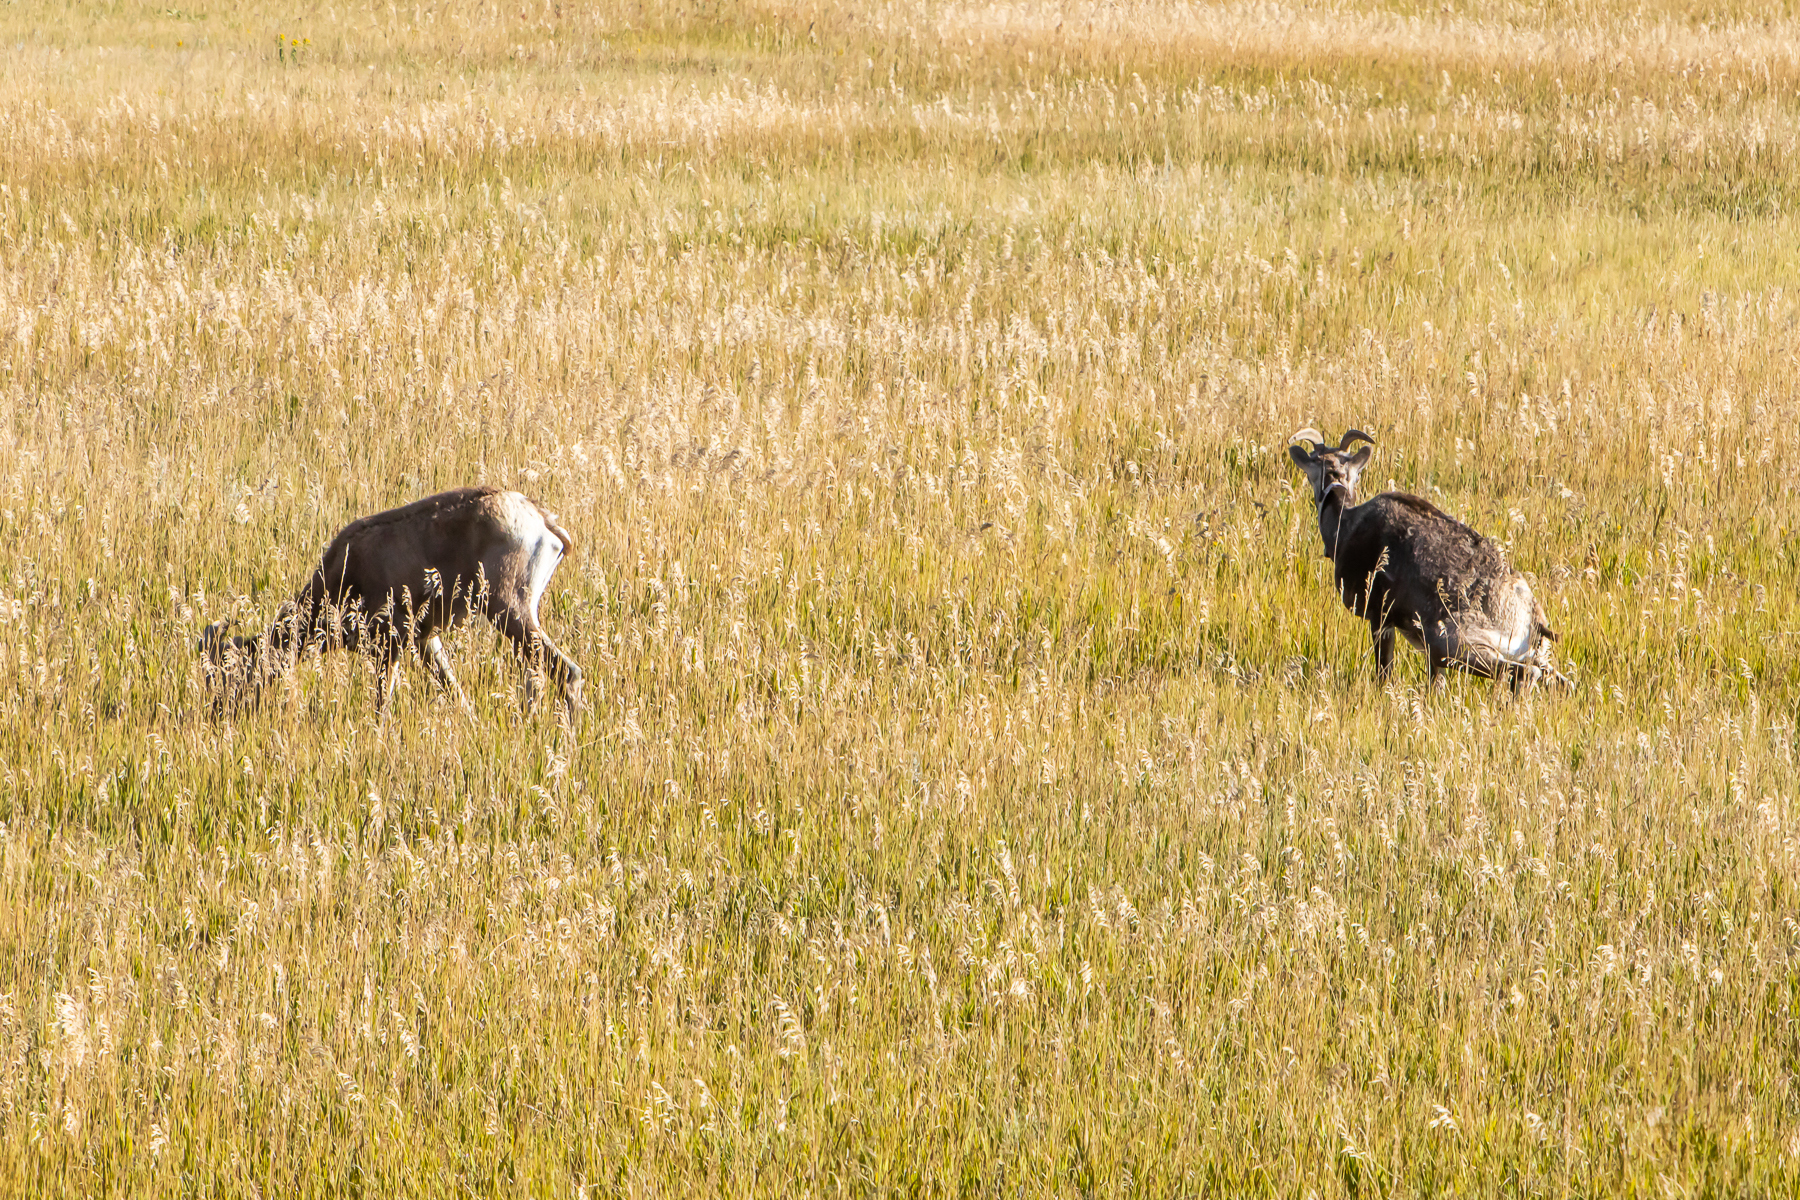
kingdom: Animalia
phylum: Chordata
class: Mammalia
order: Artiodactyla
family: Bovidae
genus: Ovis
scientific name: Ovis canadensis
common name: Bighorn sheep
